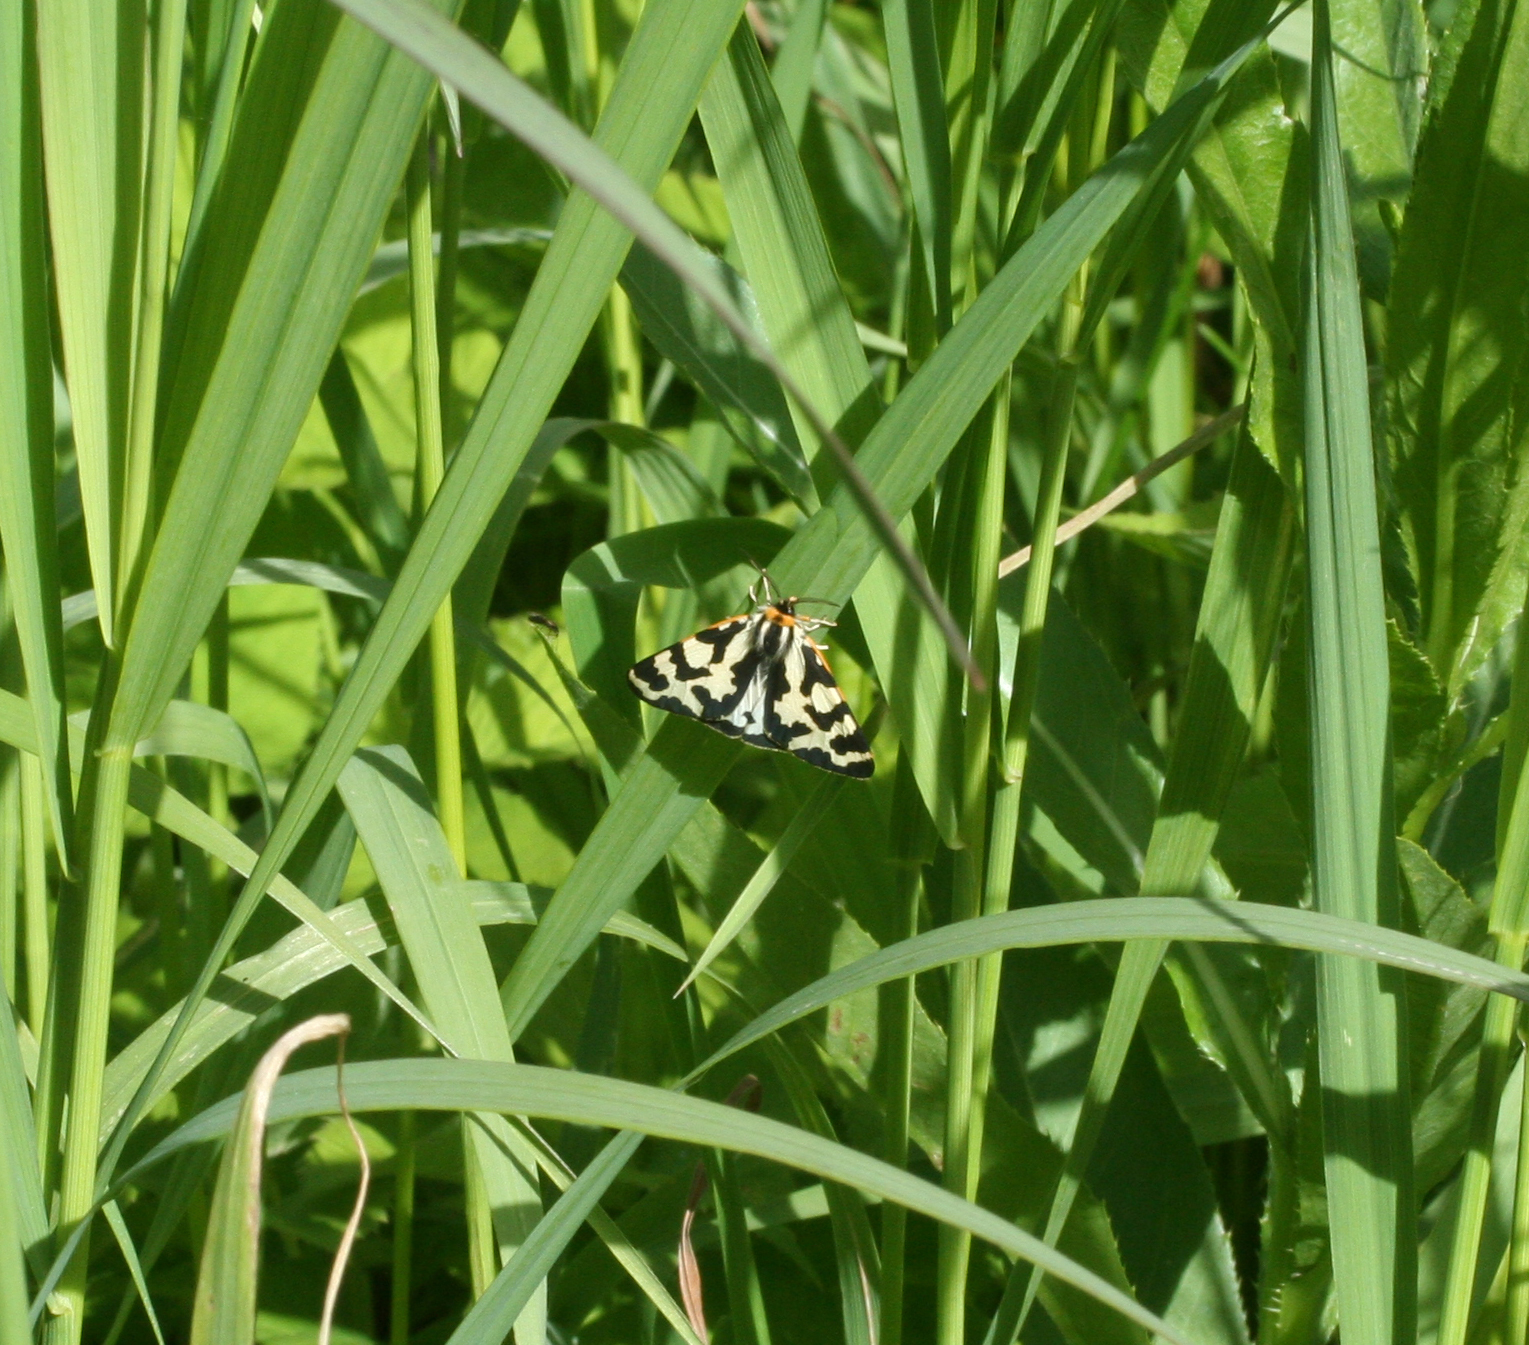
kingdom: Animalia
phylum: Arthropoda
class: Insecta
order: Lepidoptera
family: Erebidae
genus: Parasemia
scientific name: Parasemia plantaginis
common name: Wood tiger
